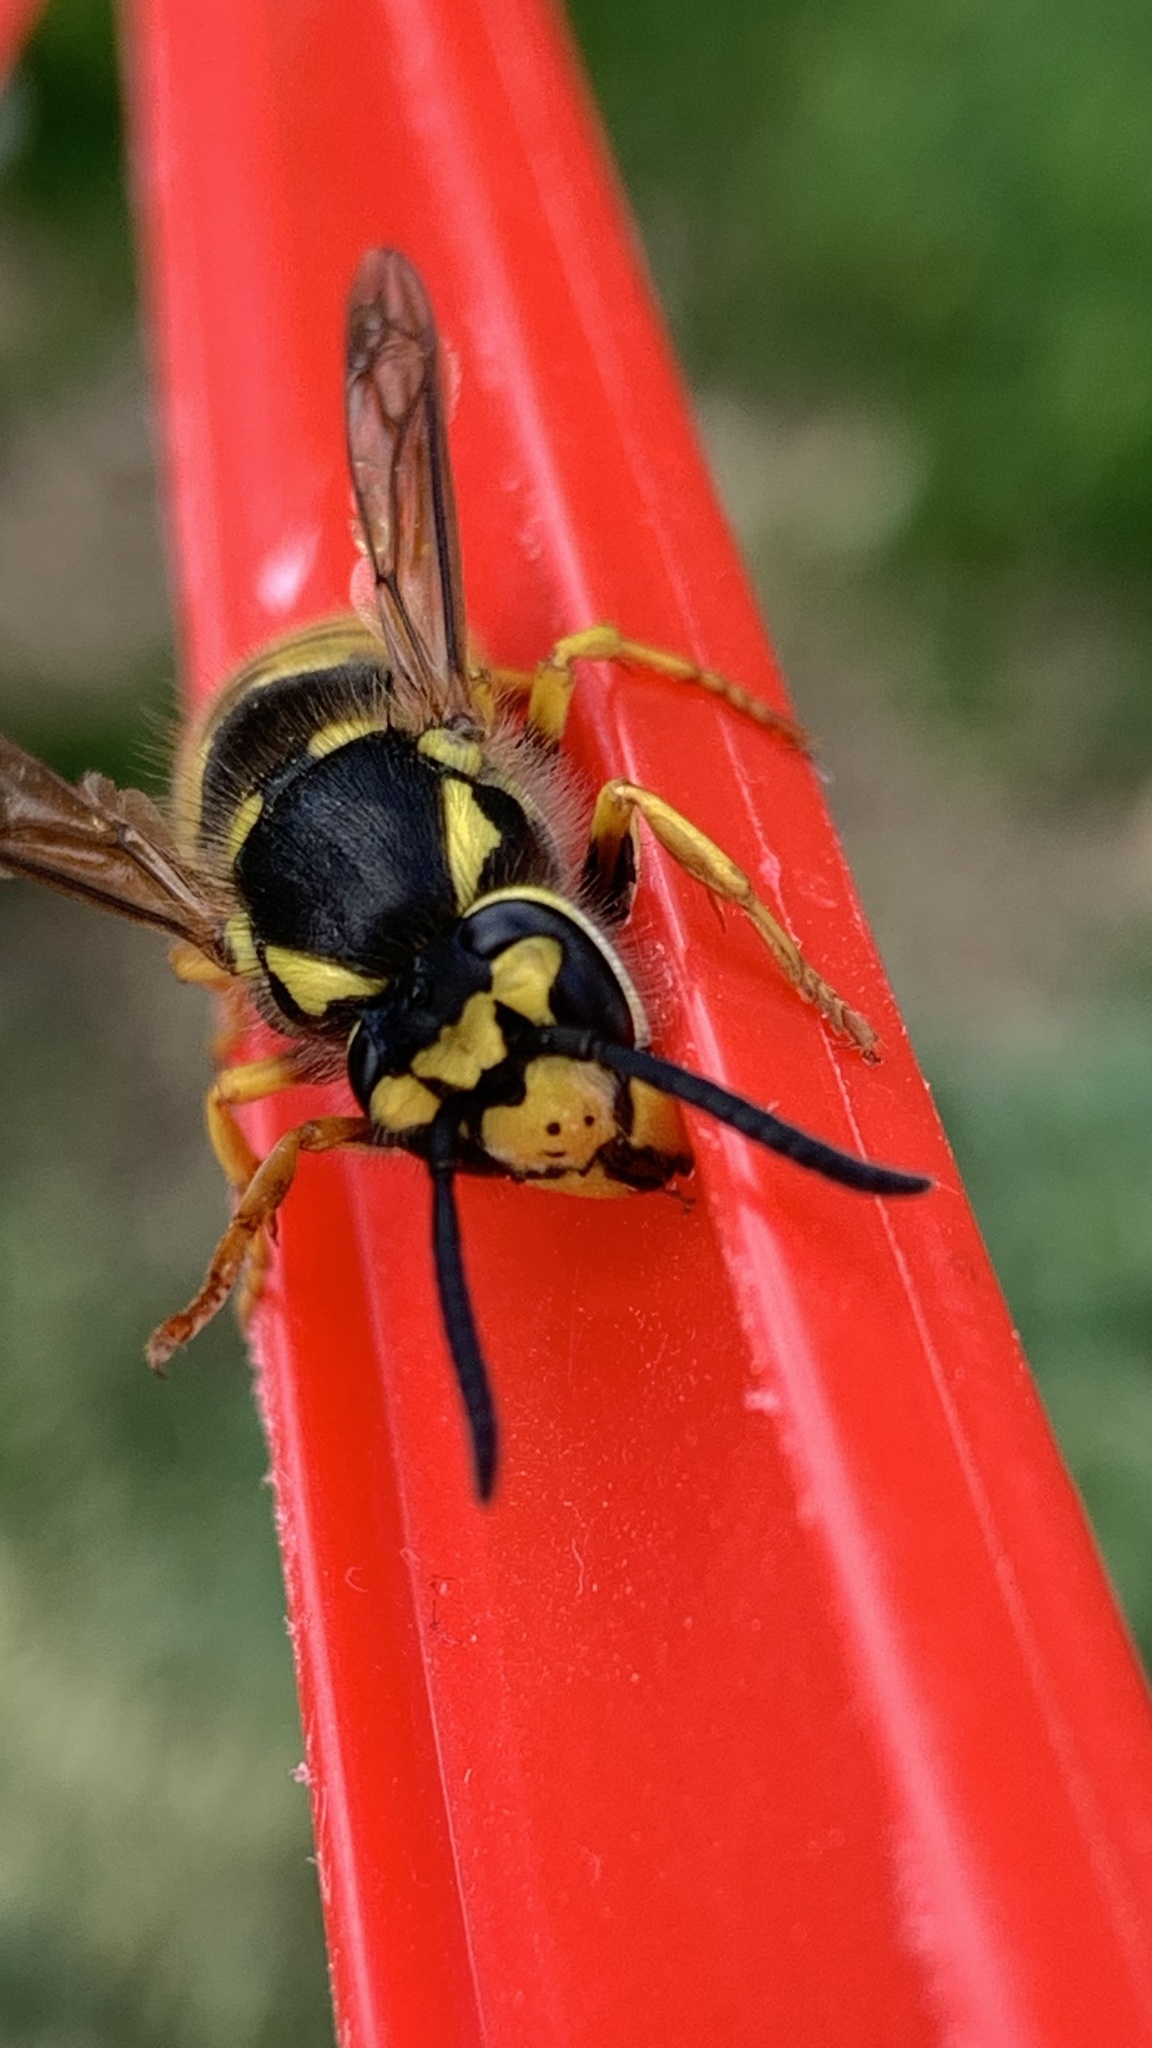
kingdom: Animalia
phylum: Arthropoda
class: Insecta
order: Hymenoptera
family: Vespidae
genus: Vespula
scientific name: Vespula germanica
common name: German wasp
